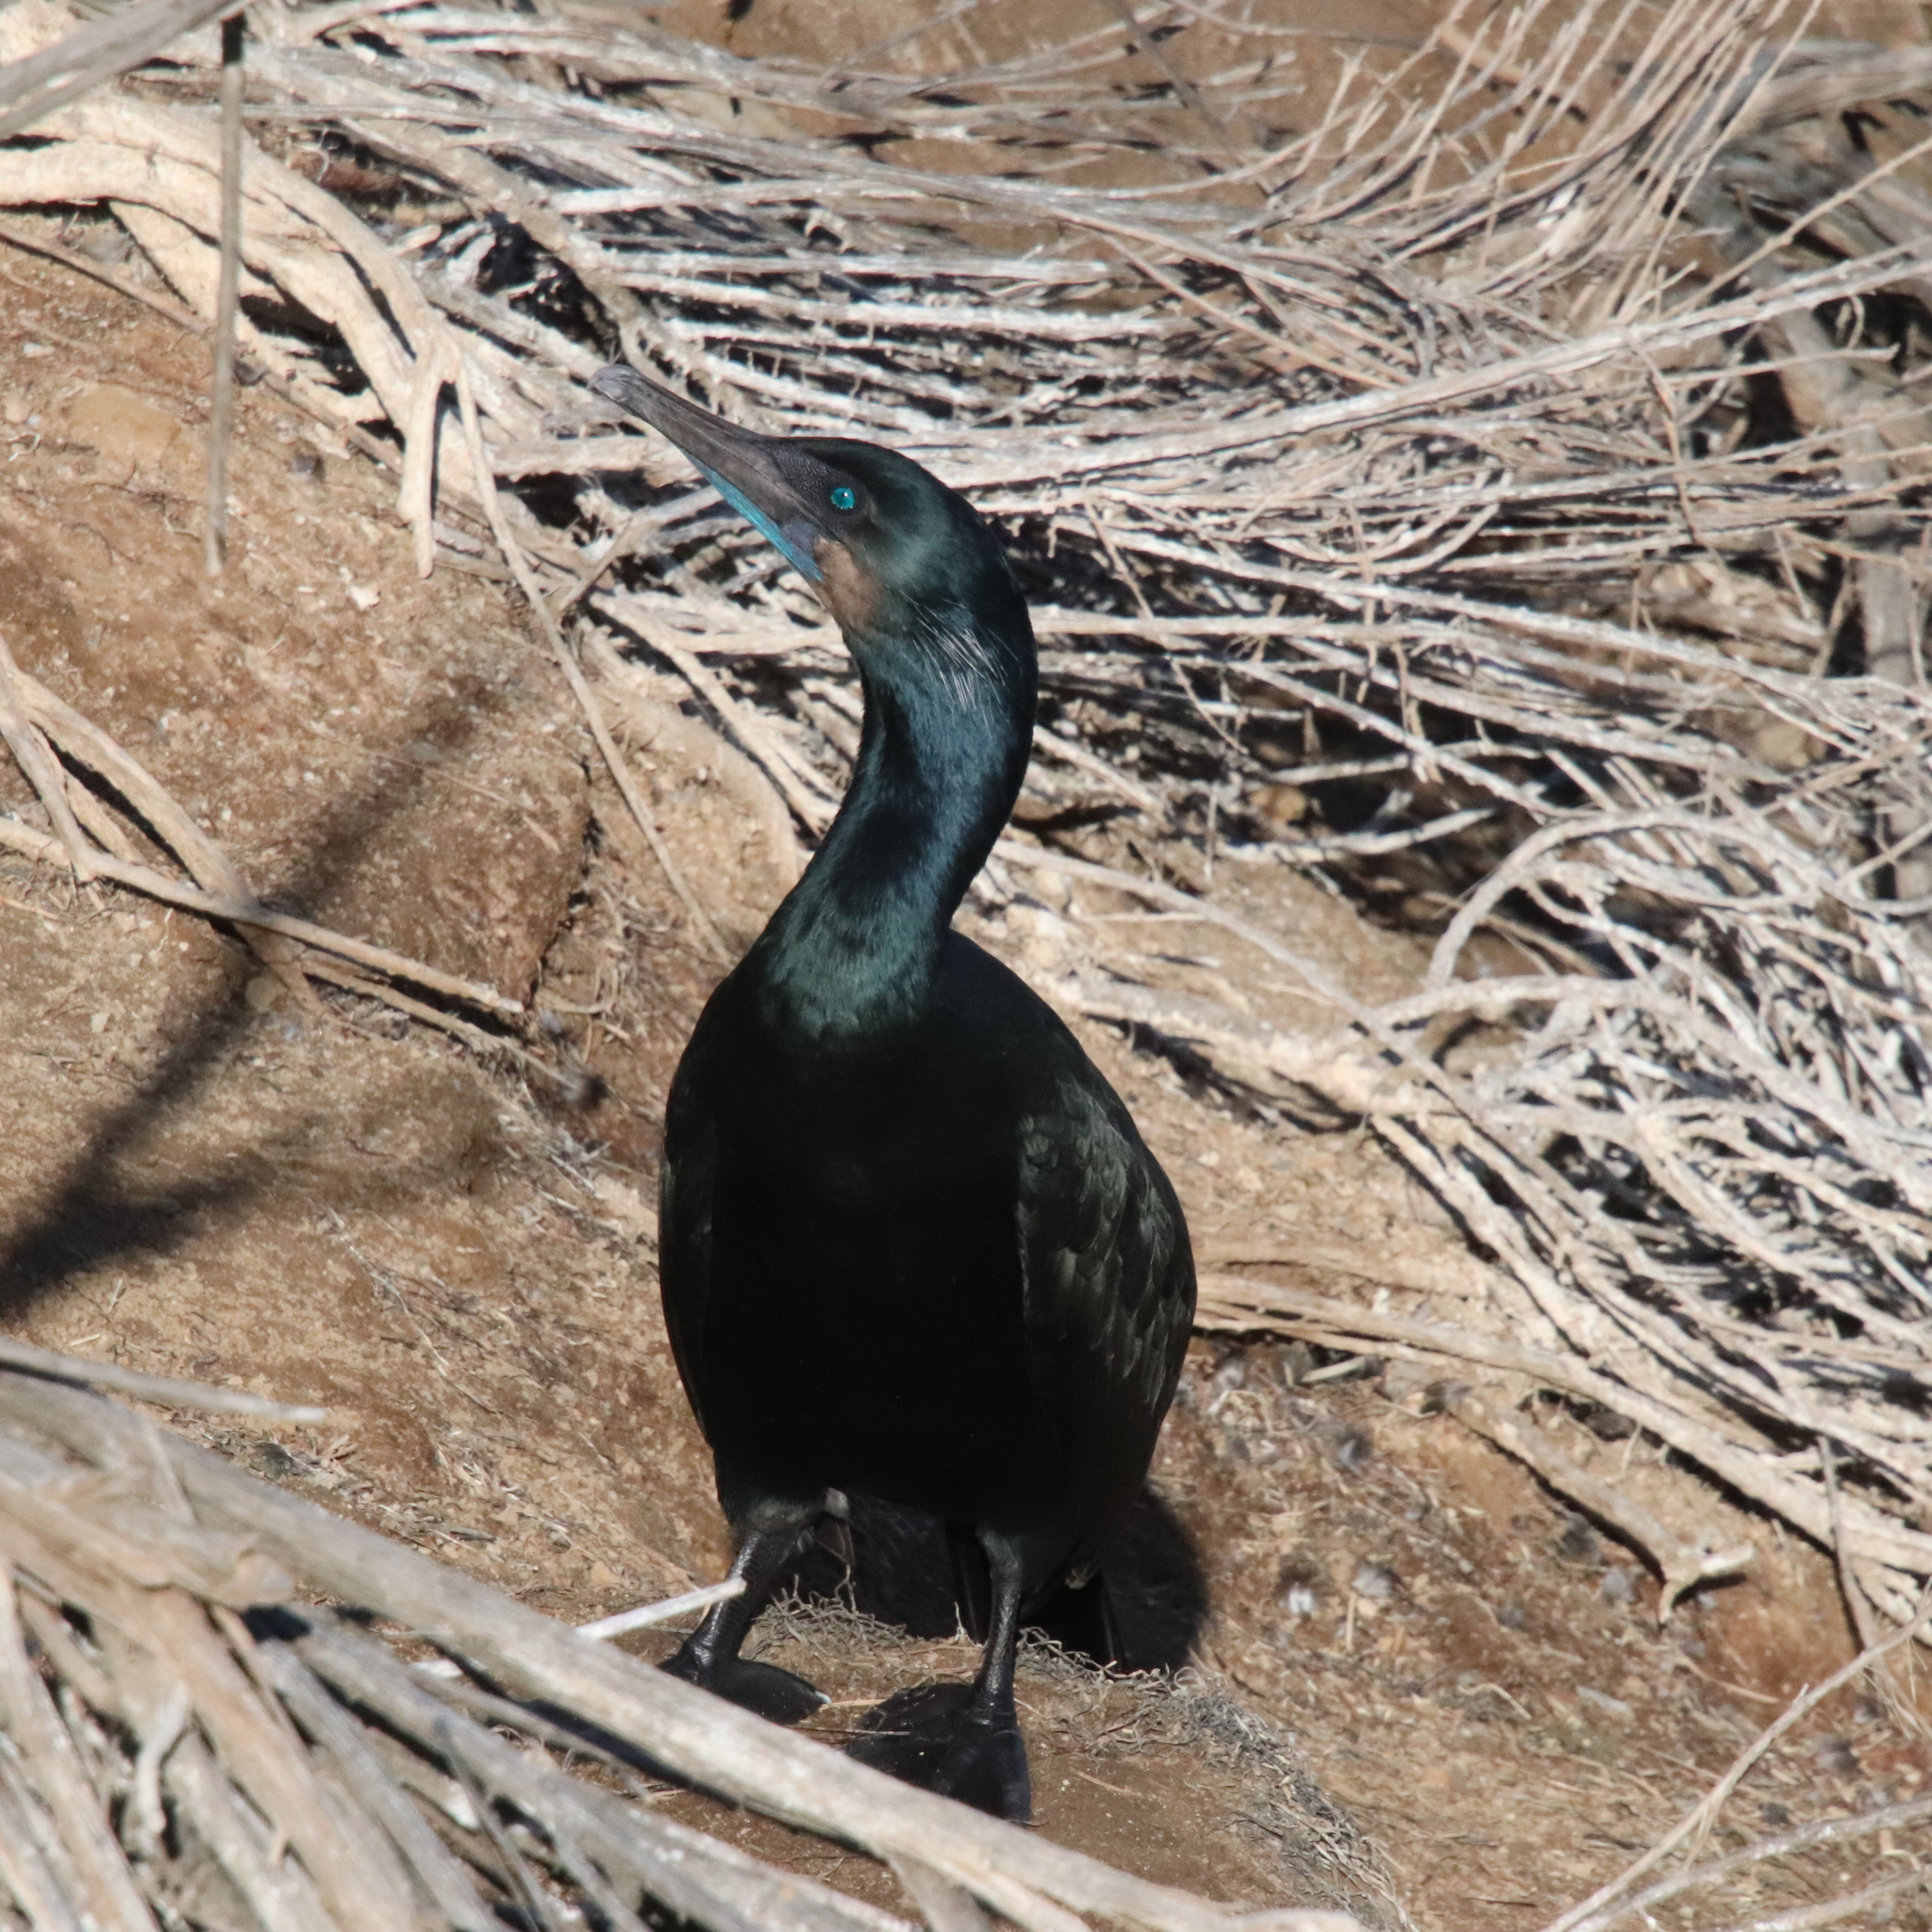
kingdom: Animalia
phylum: Chordata
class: Aves
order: Suliformes
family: Phalacrocoracidae
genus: Urile
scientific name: Urile penicillatus
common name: Brandt's cormorant
